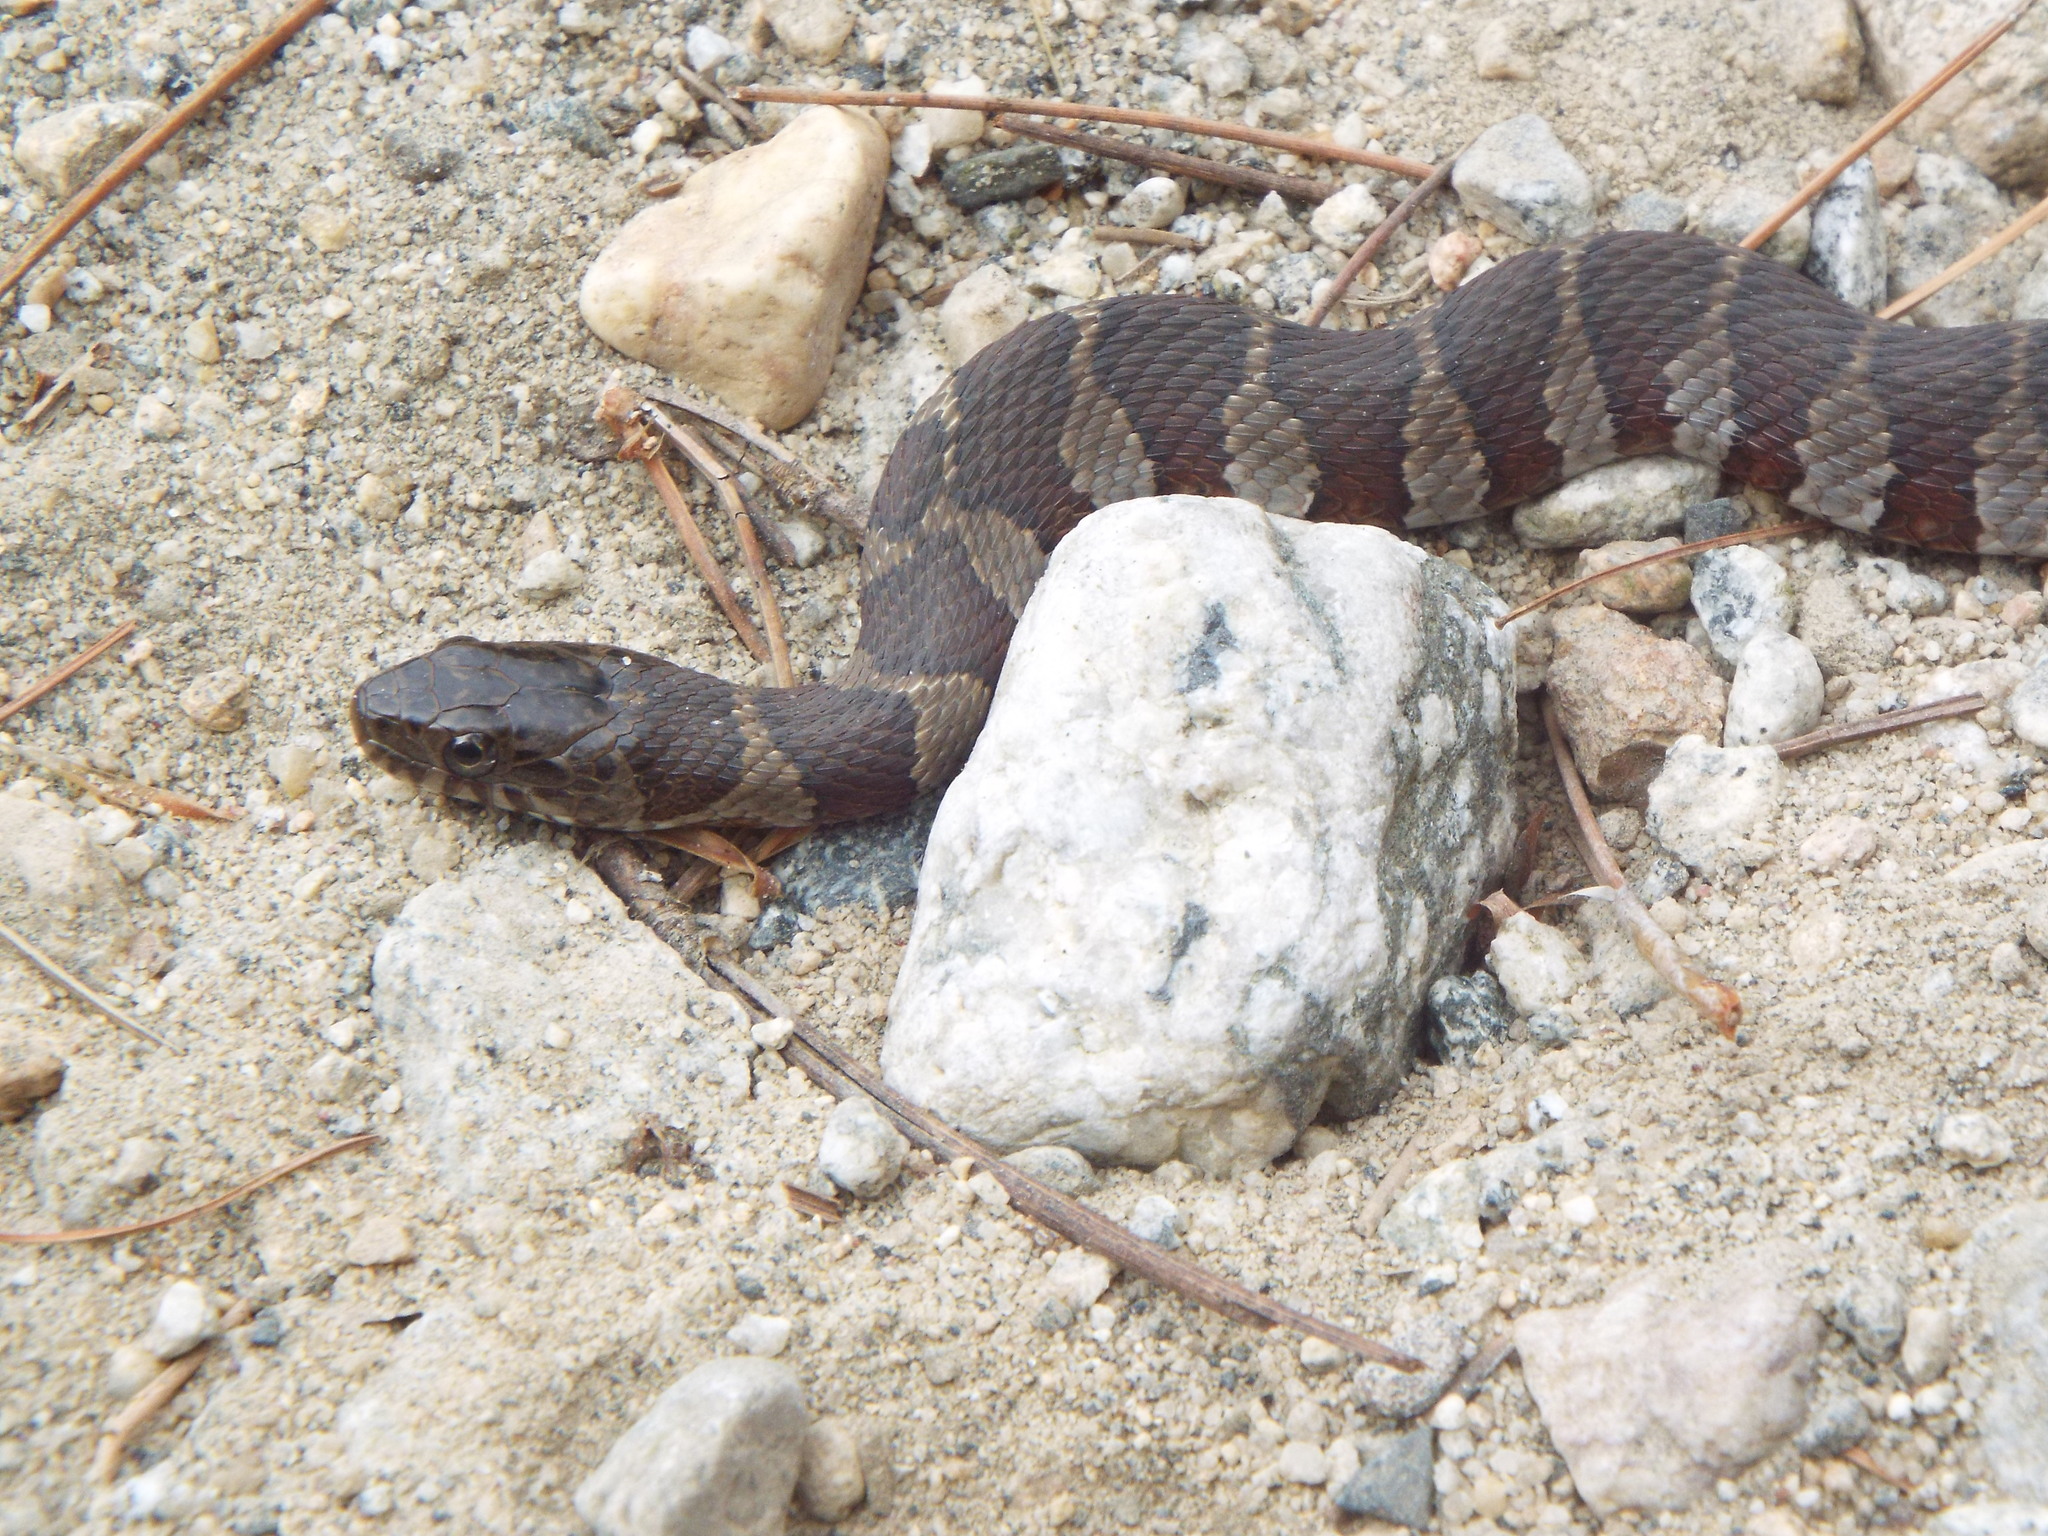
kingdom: Animalia
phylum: Chordata
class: Squamata
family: Colubridae
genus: Nerodia
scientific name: Nerodia sipedon
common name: Northern water snake
